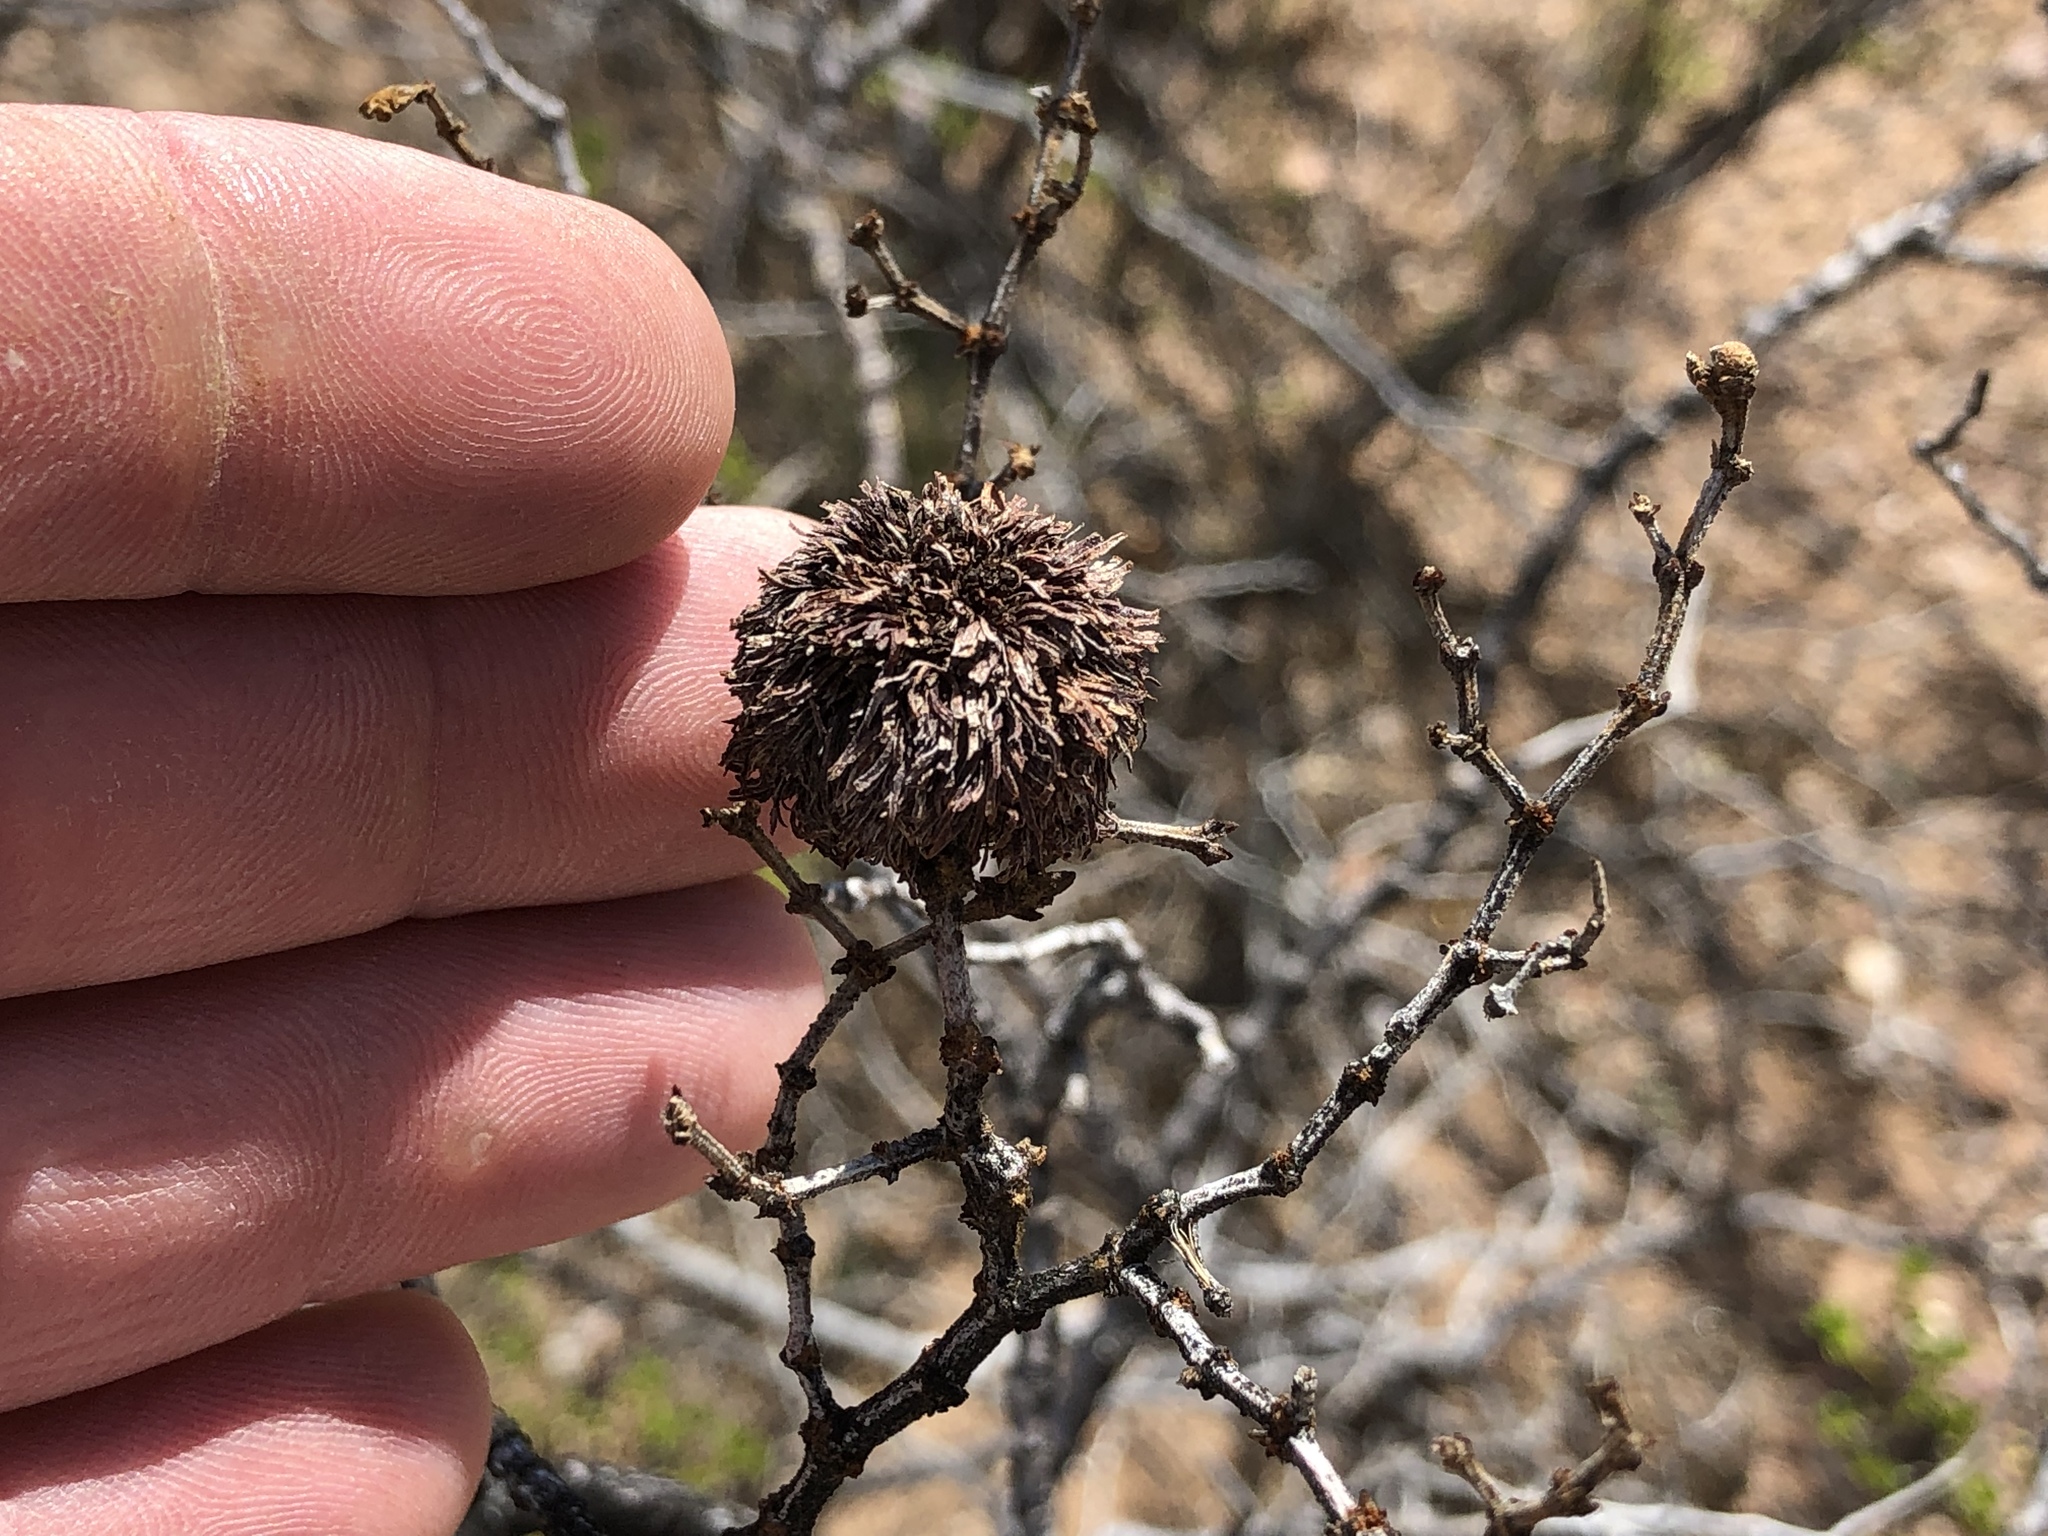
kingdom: Animalia
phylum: Arthropoda
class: Insecta
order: Diptera
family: Cecidomyiidae
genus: Asphondylia
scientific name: Asphondylia auripila
